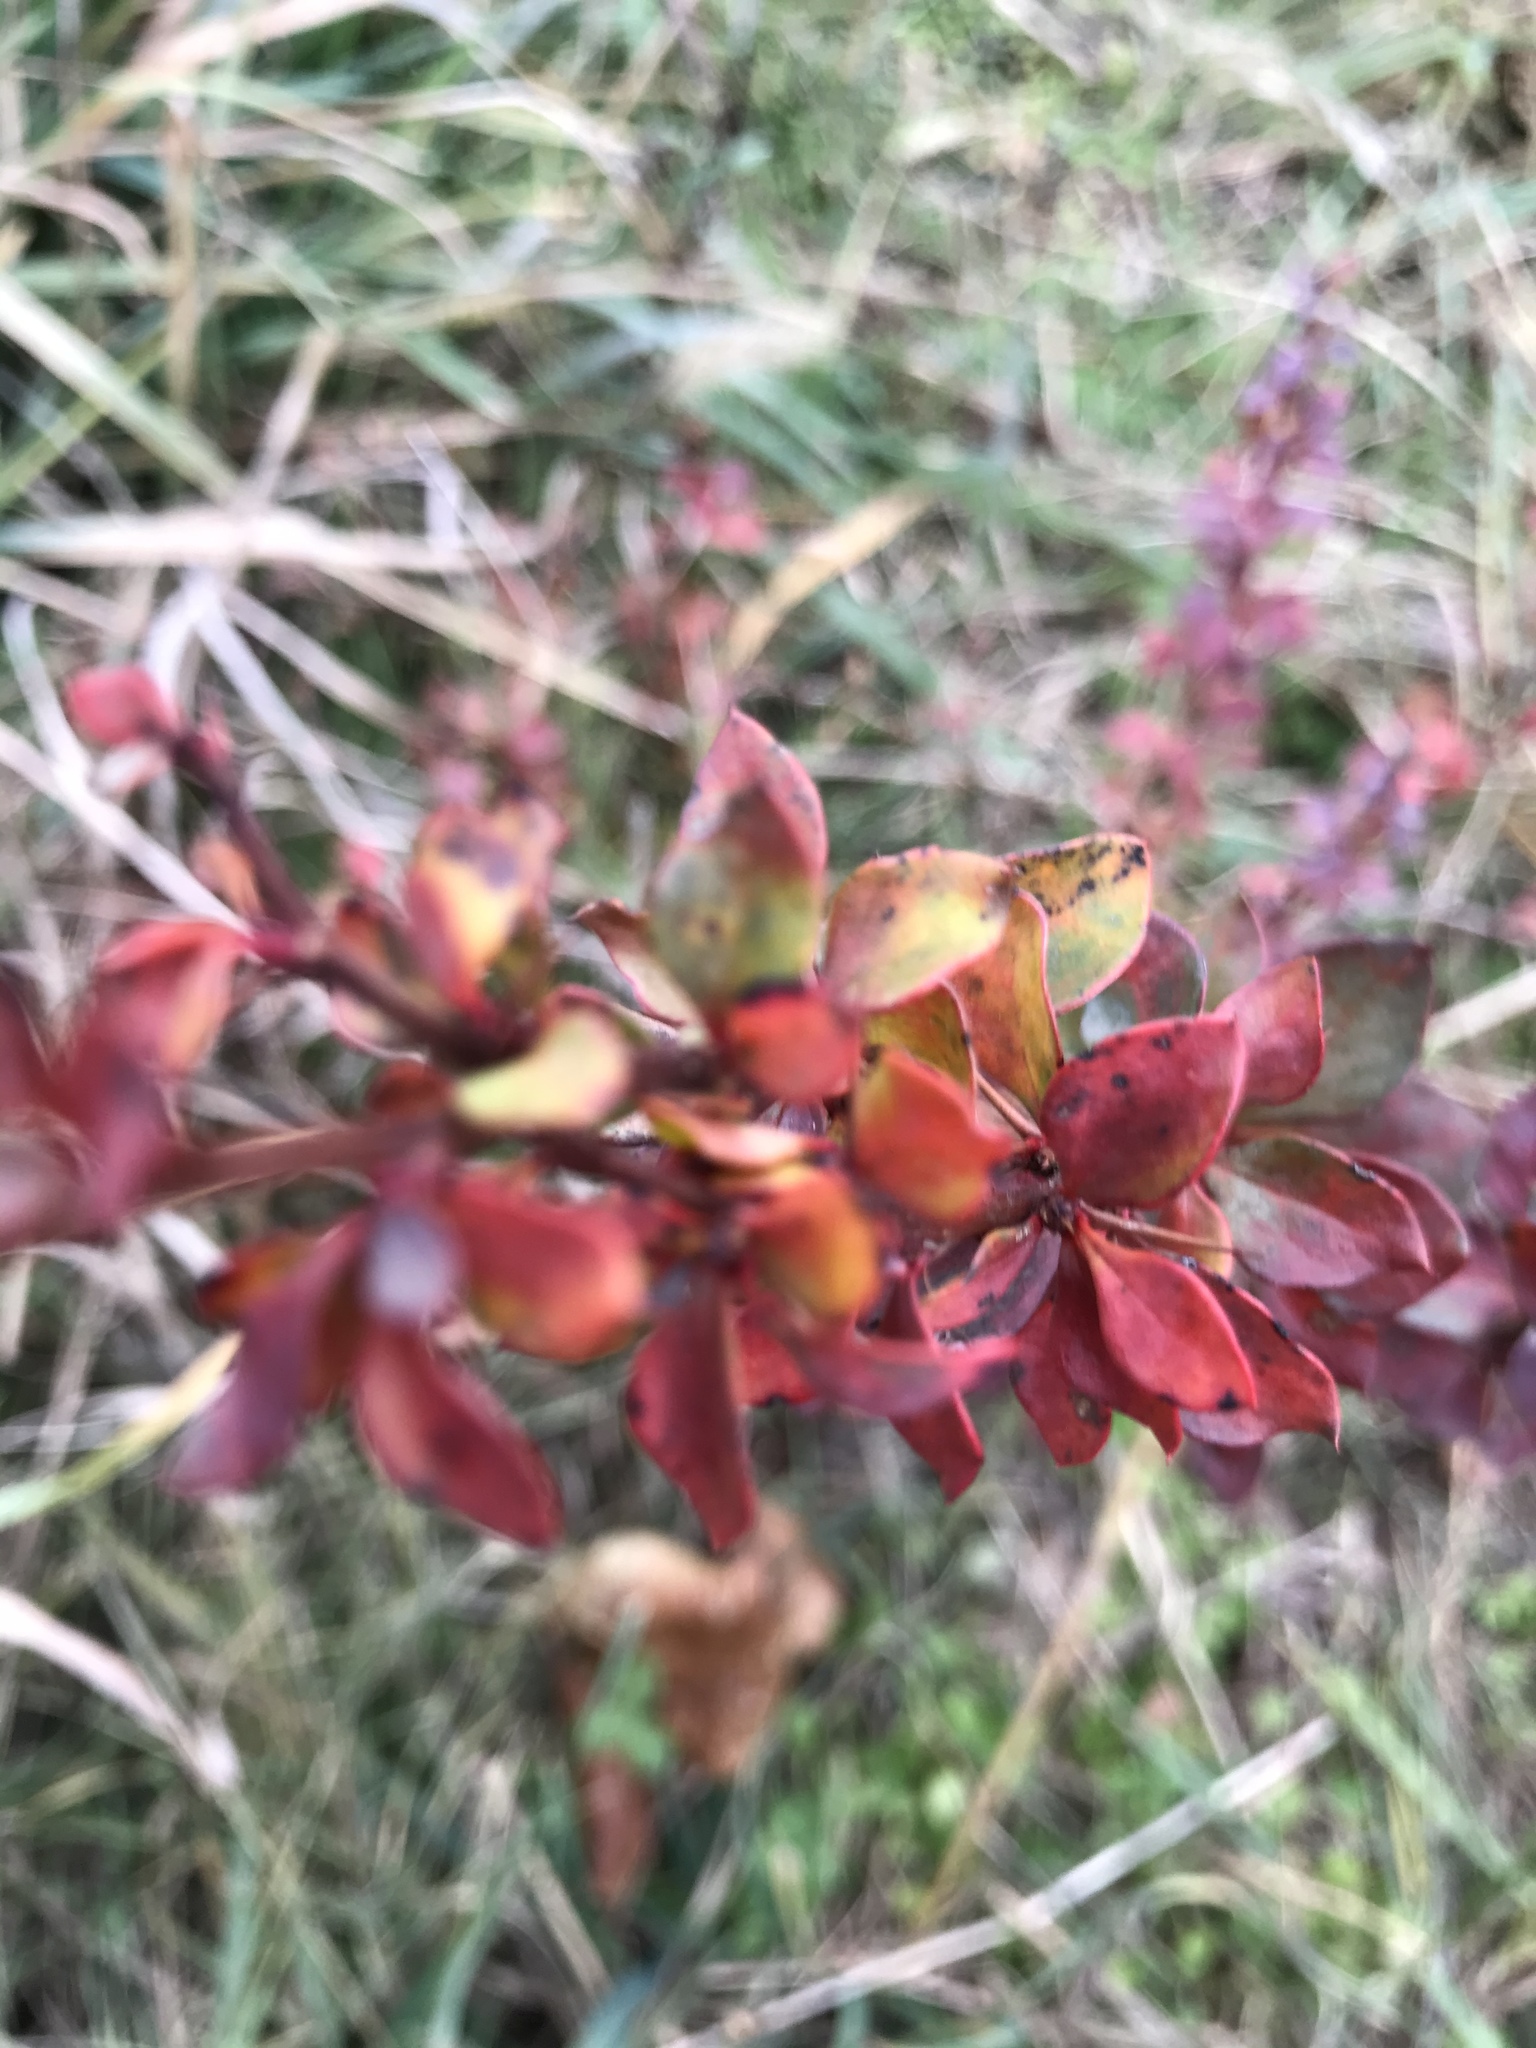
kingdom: Plantae
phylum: Tracheophyta
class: Magnoliopsida
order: Ranunculales
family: Berberidaceae
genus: Berberis
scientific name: Berberis thunbergii
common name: Japanese barberry
